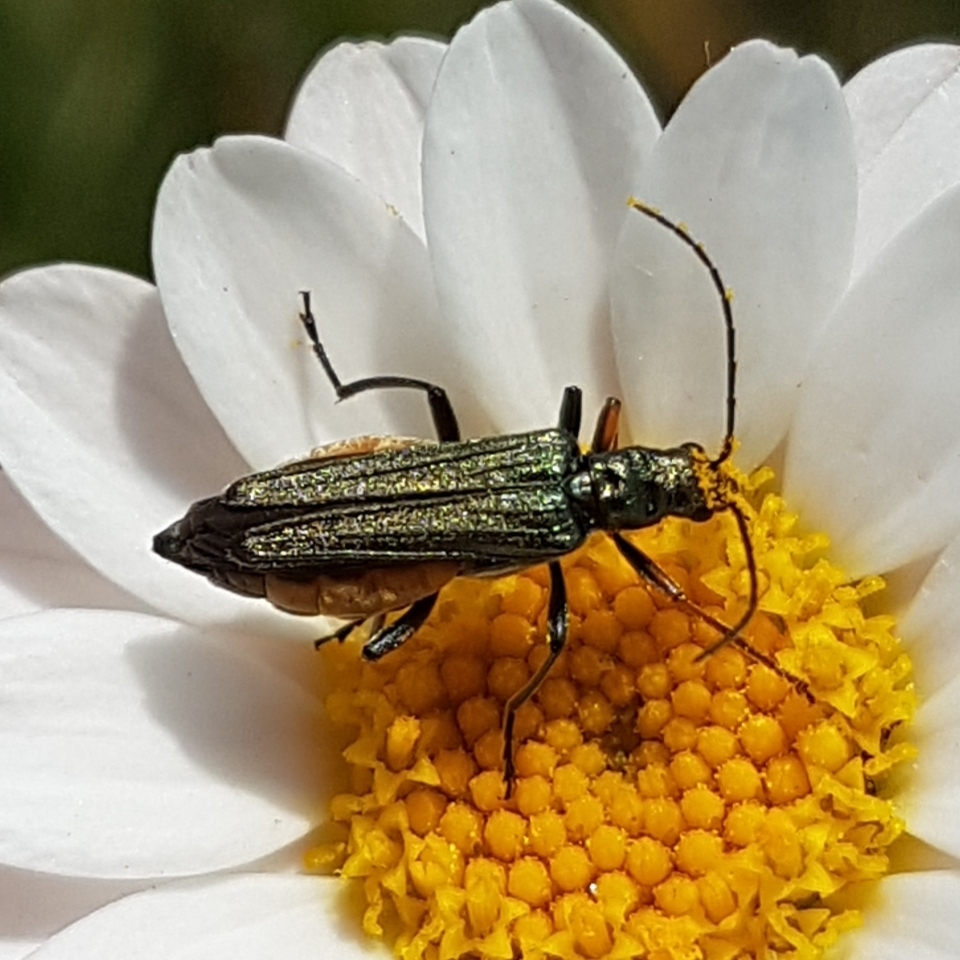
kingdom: Animalia
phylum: Arthropoda
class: Insecta
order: Coleoptera
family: Oedemeridae
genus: Oedemera
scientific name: Oedemera flavipes
